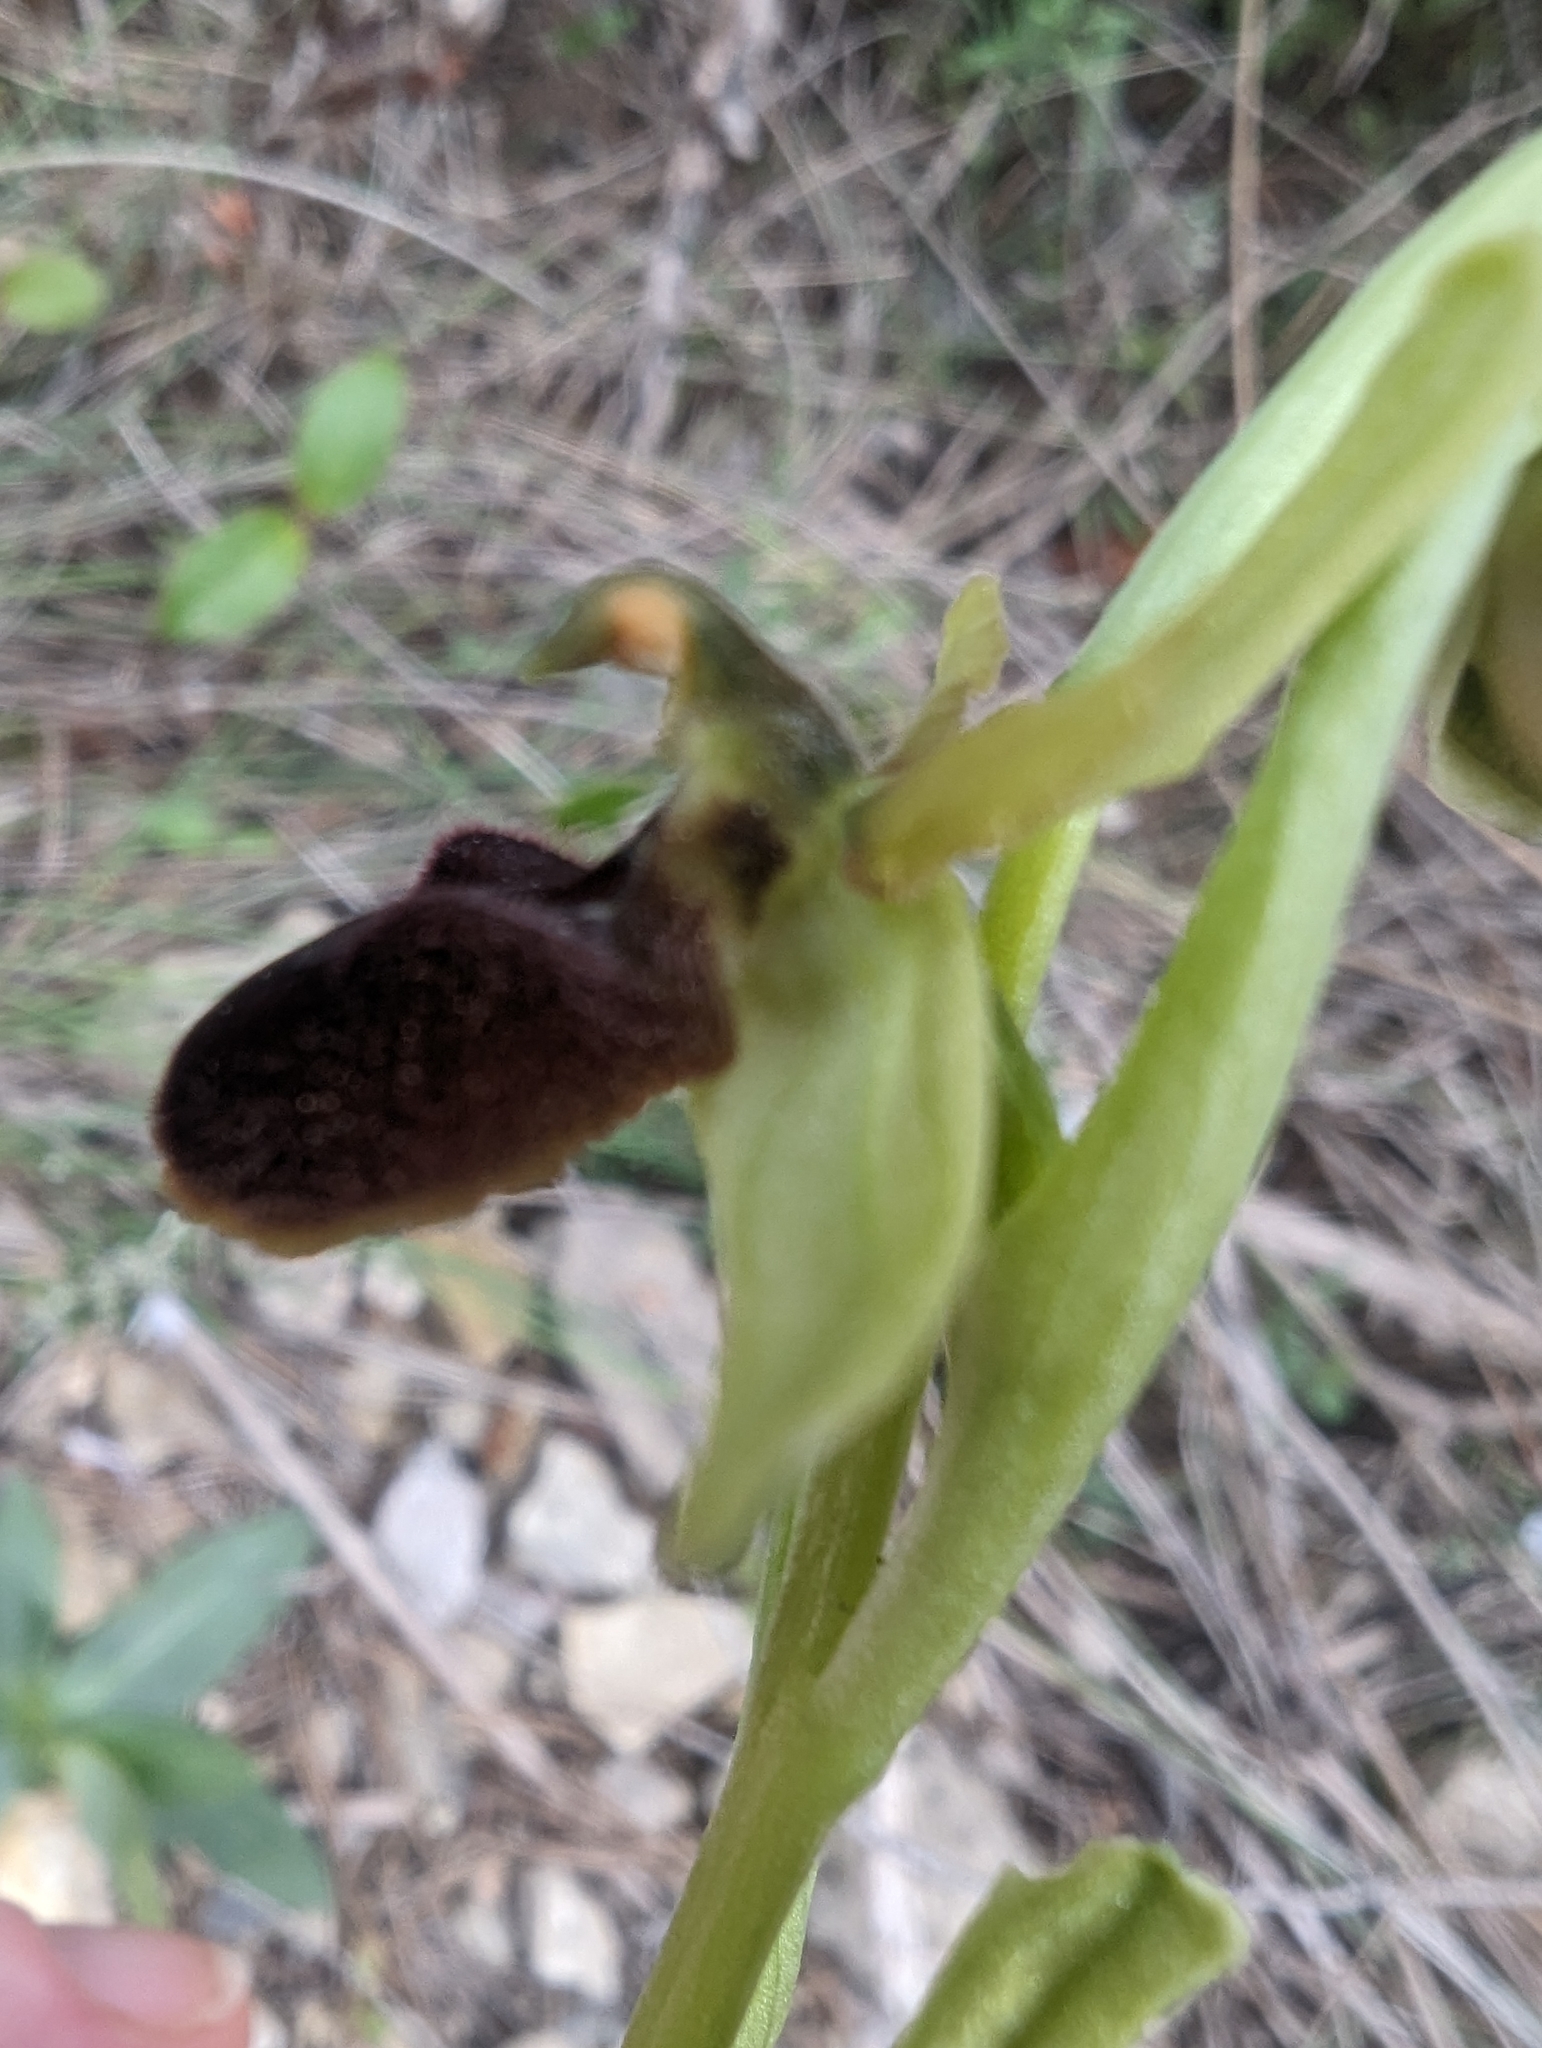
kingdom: Plantae
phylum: Tracheophyta
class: Liliopsida
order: Asparagales
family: Orchidaceae
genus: Ophrys
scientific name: Ophrys arachnitiformis
